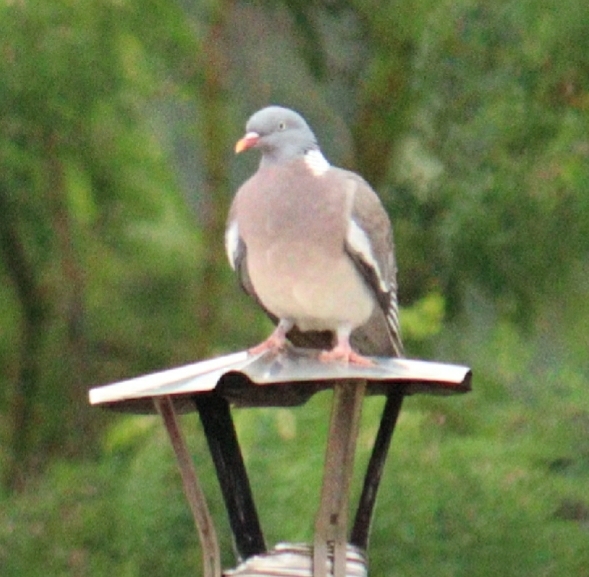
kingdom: Animalia
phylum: Chordata
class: Aves
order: Columbiformes
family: Columbidae
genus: Columba
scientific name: Columba palumbus
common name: Common wood pigeon
